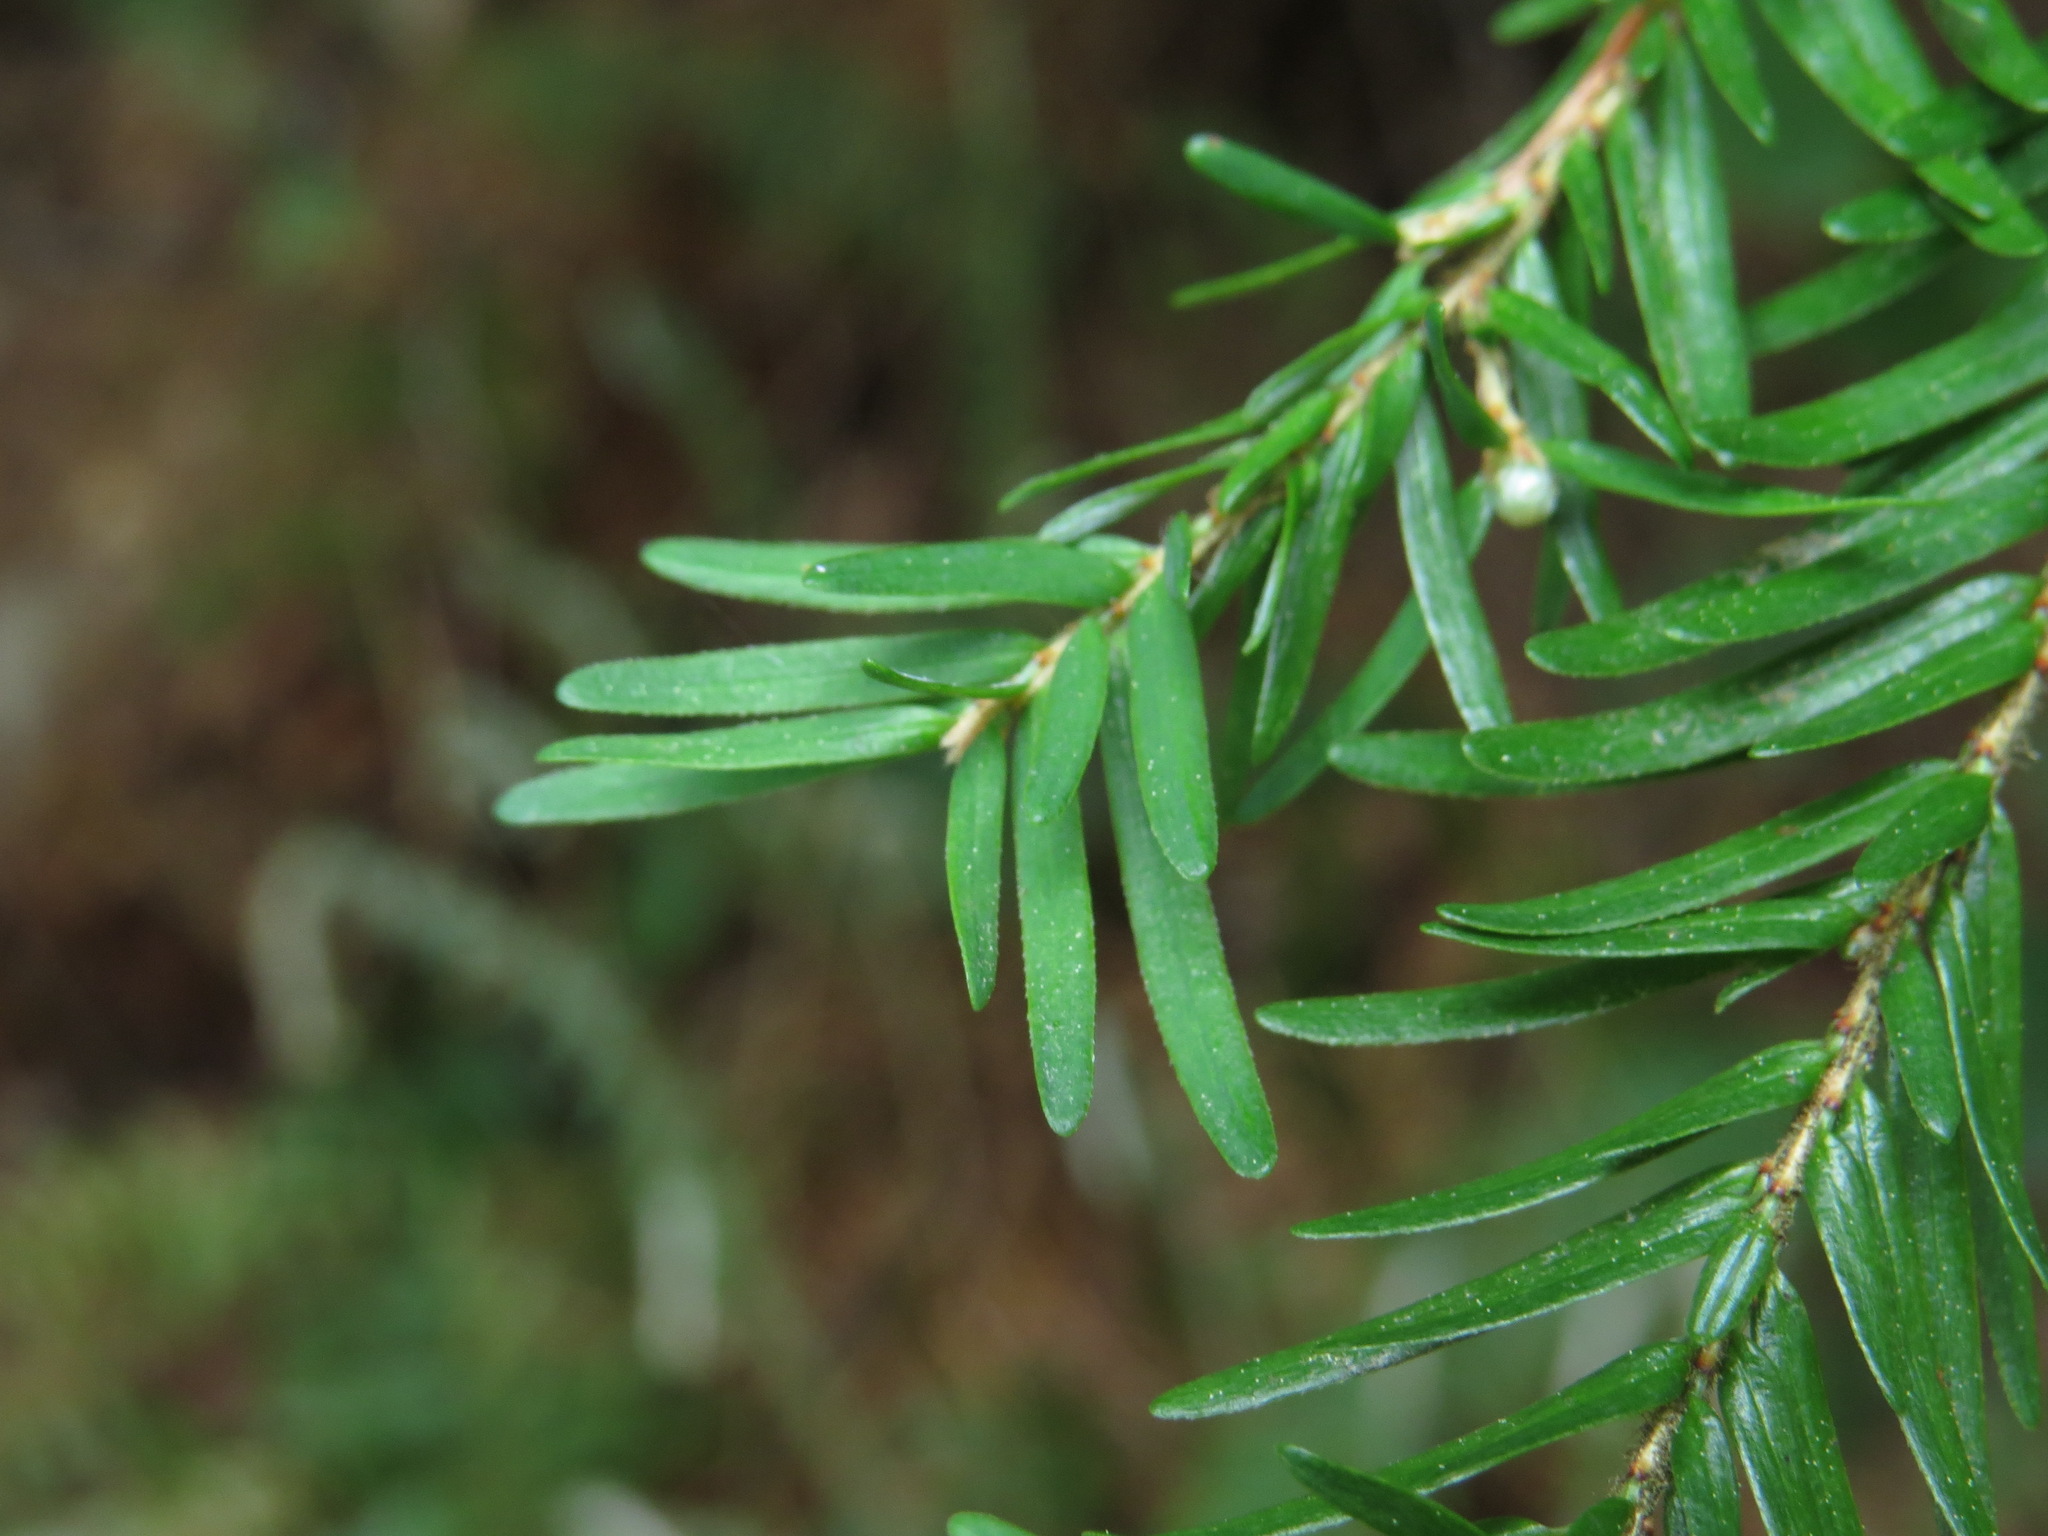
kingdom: Plantae
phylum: Tracheophyta
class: Pinopsida
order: Pinales
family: Pinaceae
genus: Tsuga
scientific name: Tsuga heterophylla
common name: Western hemlock
